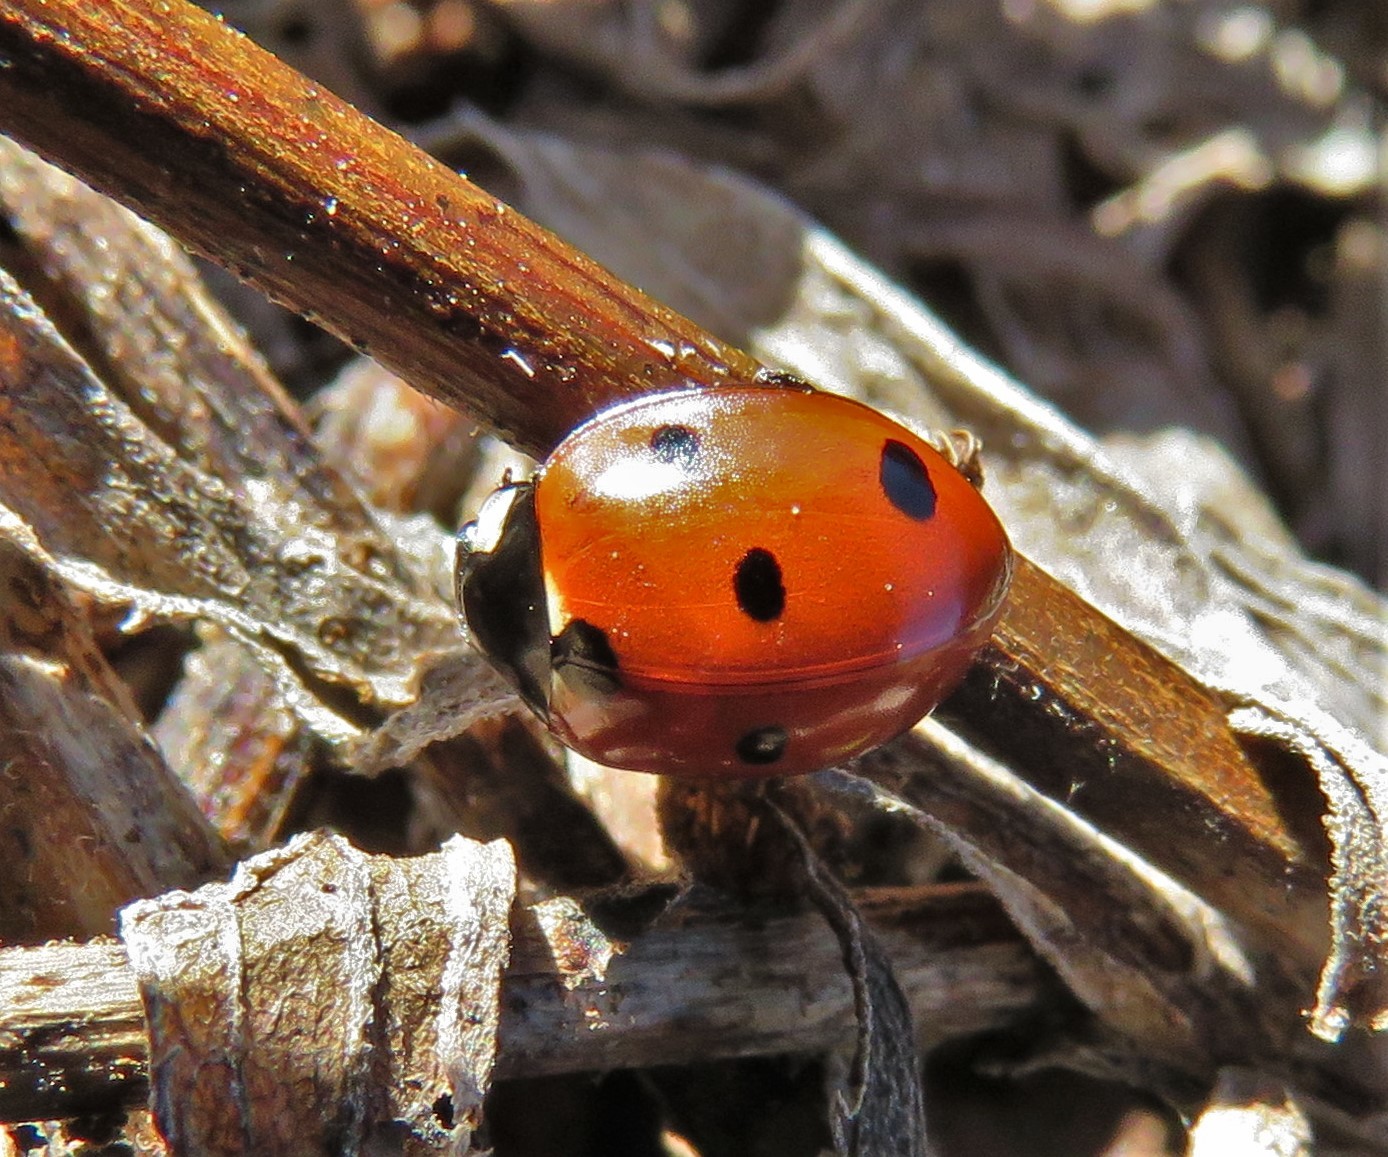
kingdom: Animalia
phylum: Arthropoda
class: Insecta
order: Coleoptera
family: Coccinellidae
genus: Coccinella
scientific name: Coccinella septempunctata
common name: Sevenspotted lady beetle
